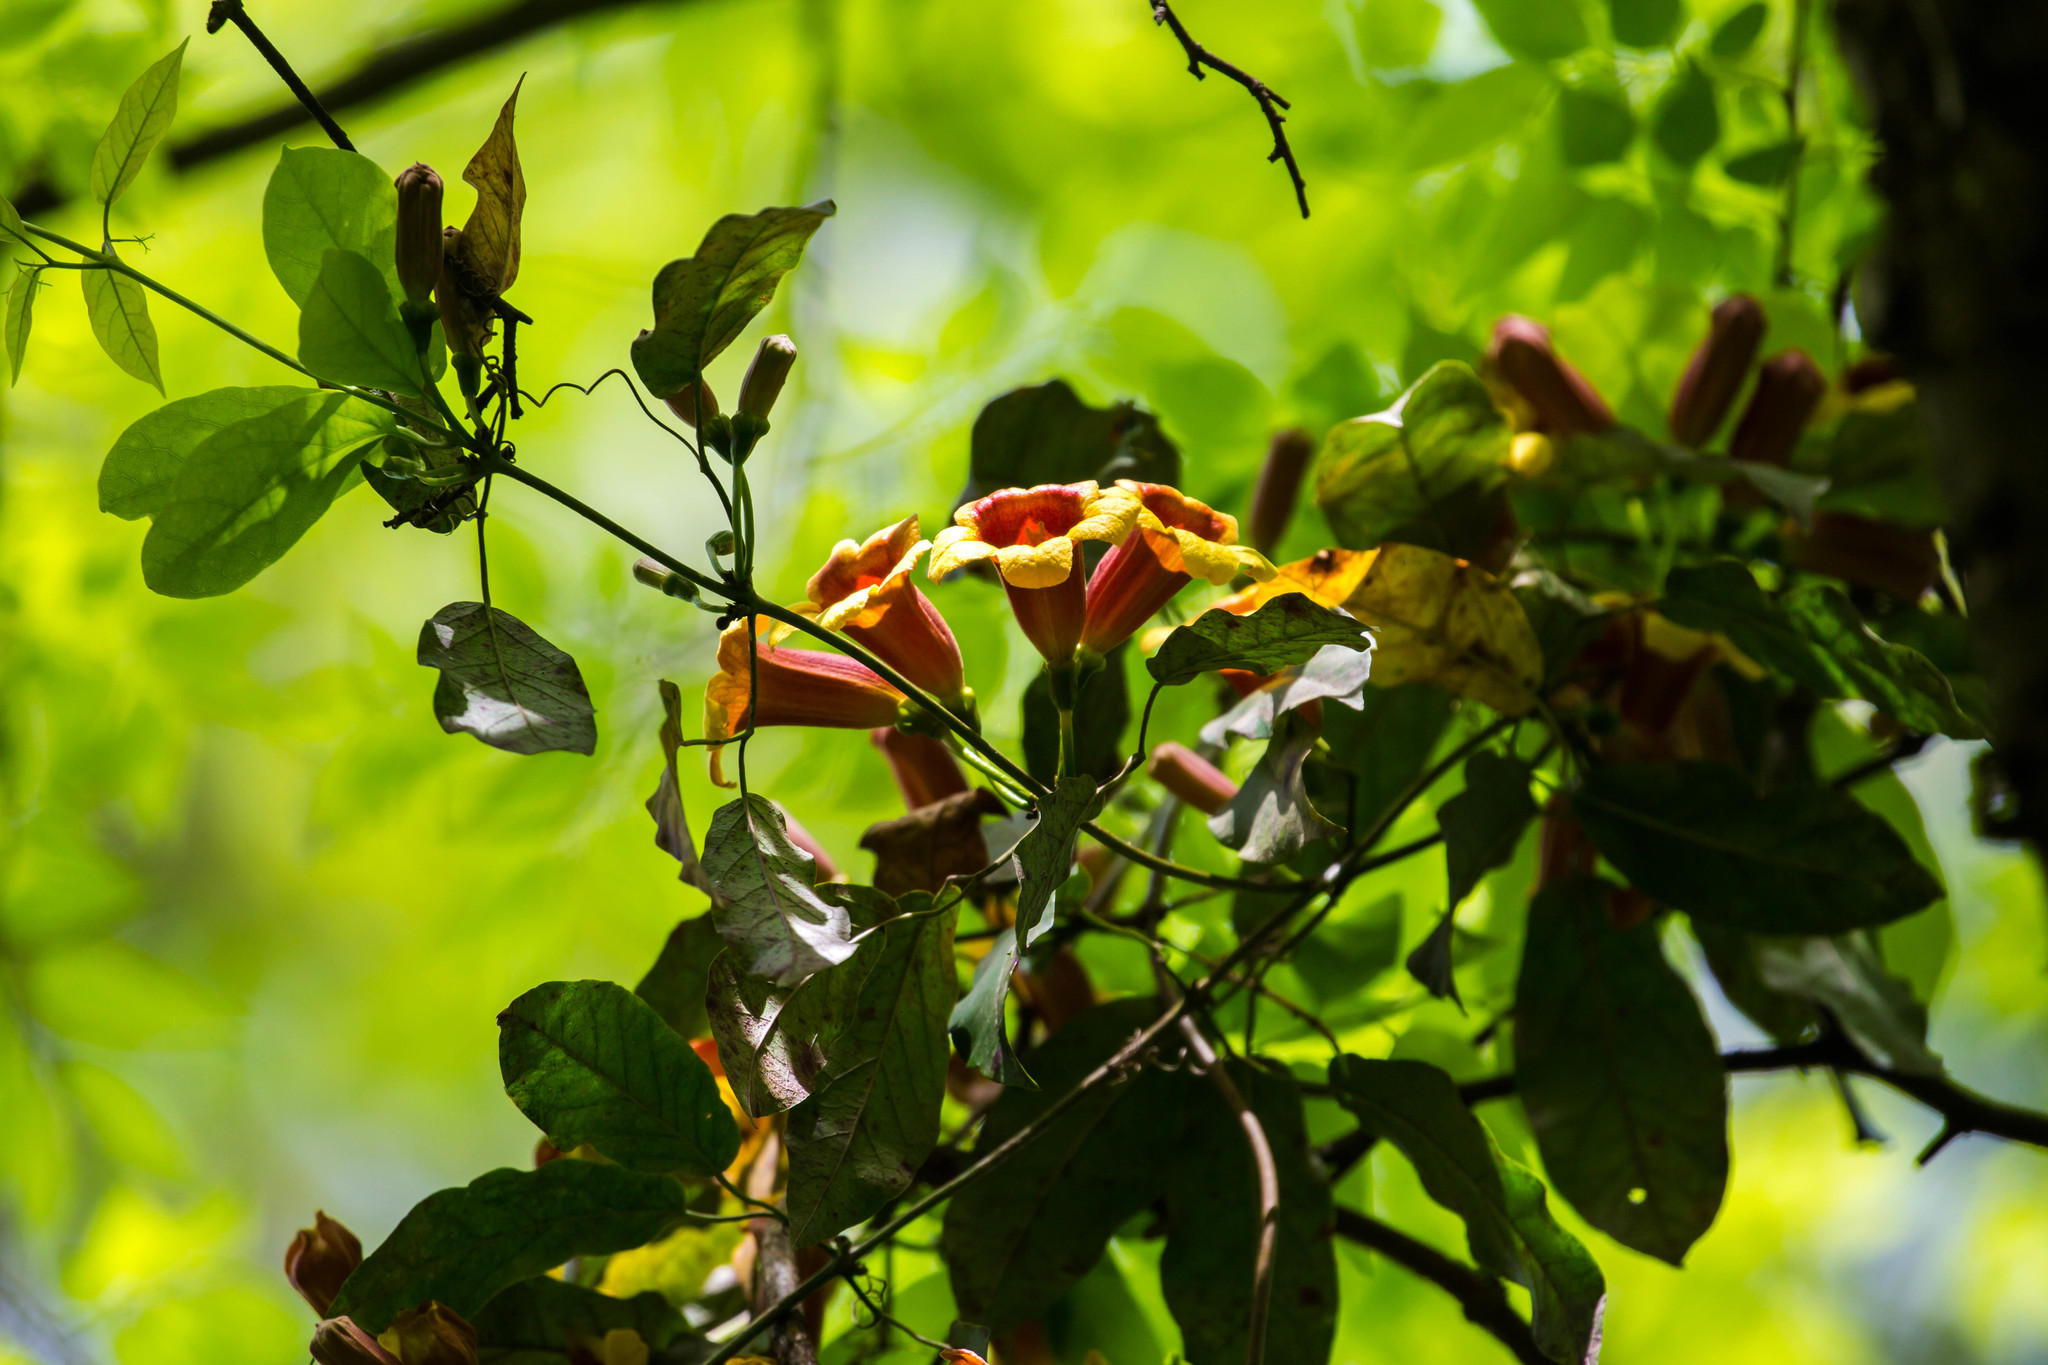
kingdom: Plantae
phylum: Tracheophyta
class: Magnoliopsida
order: Lamiales
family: Bignoniaceae
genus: Bignonia
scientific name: Bignonia capreolata
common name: Crossvine
